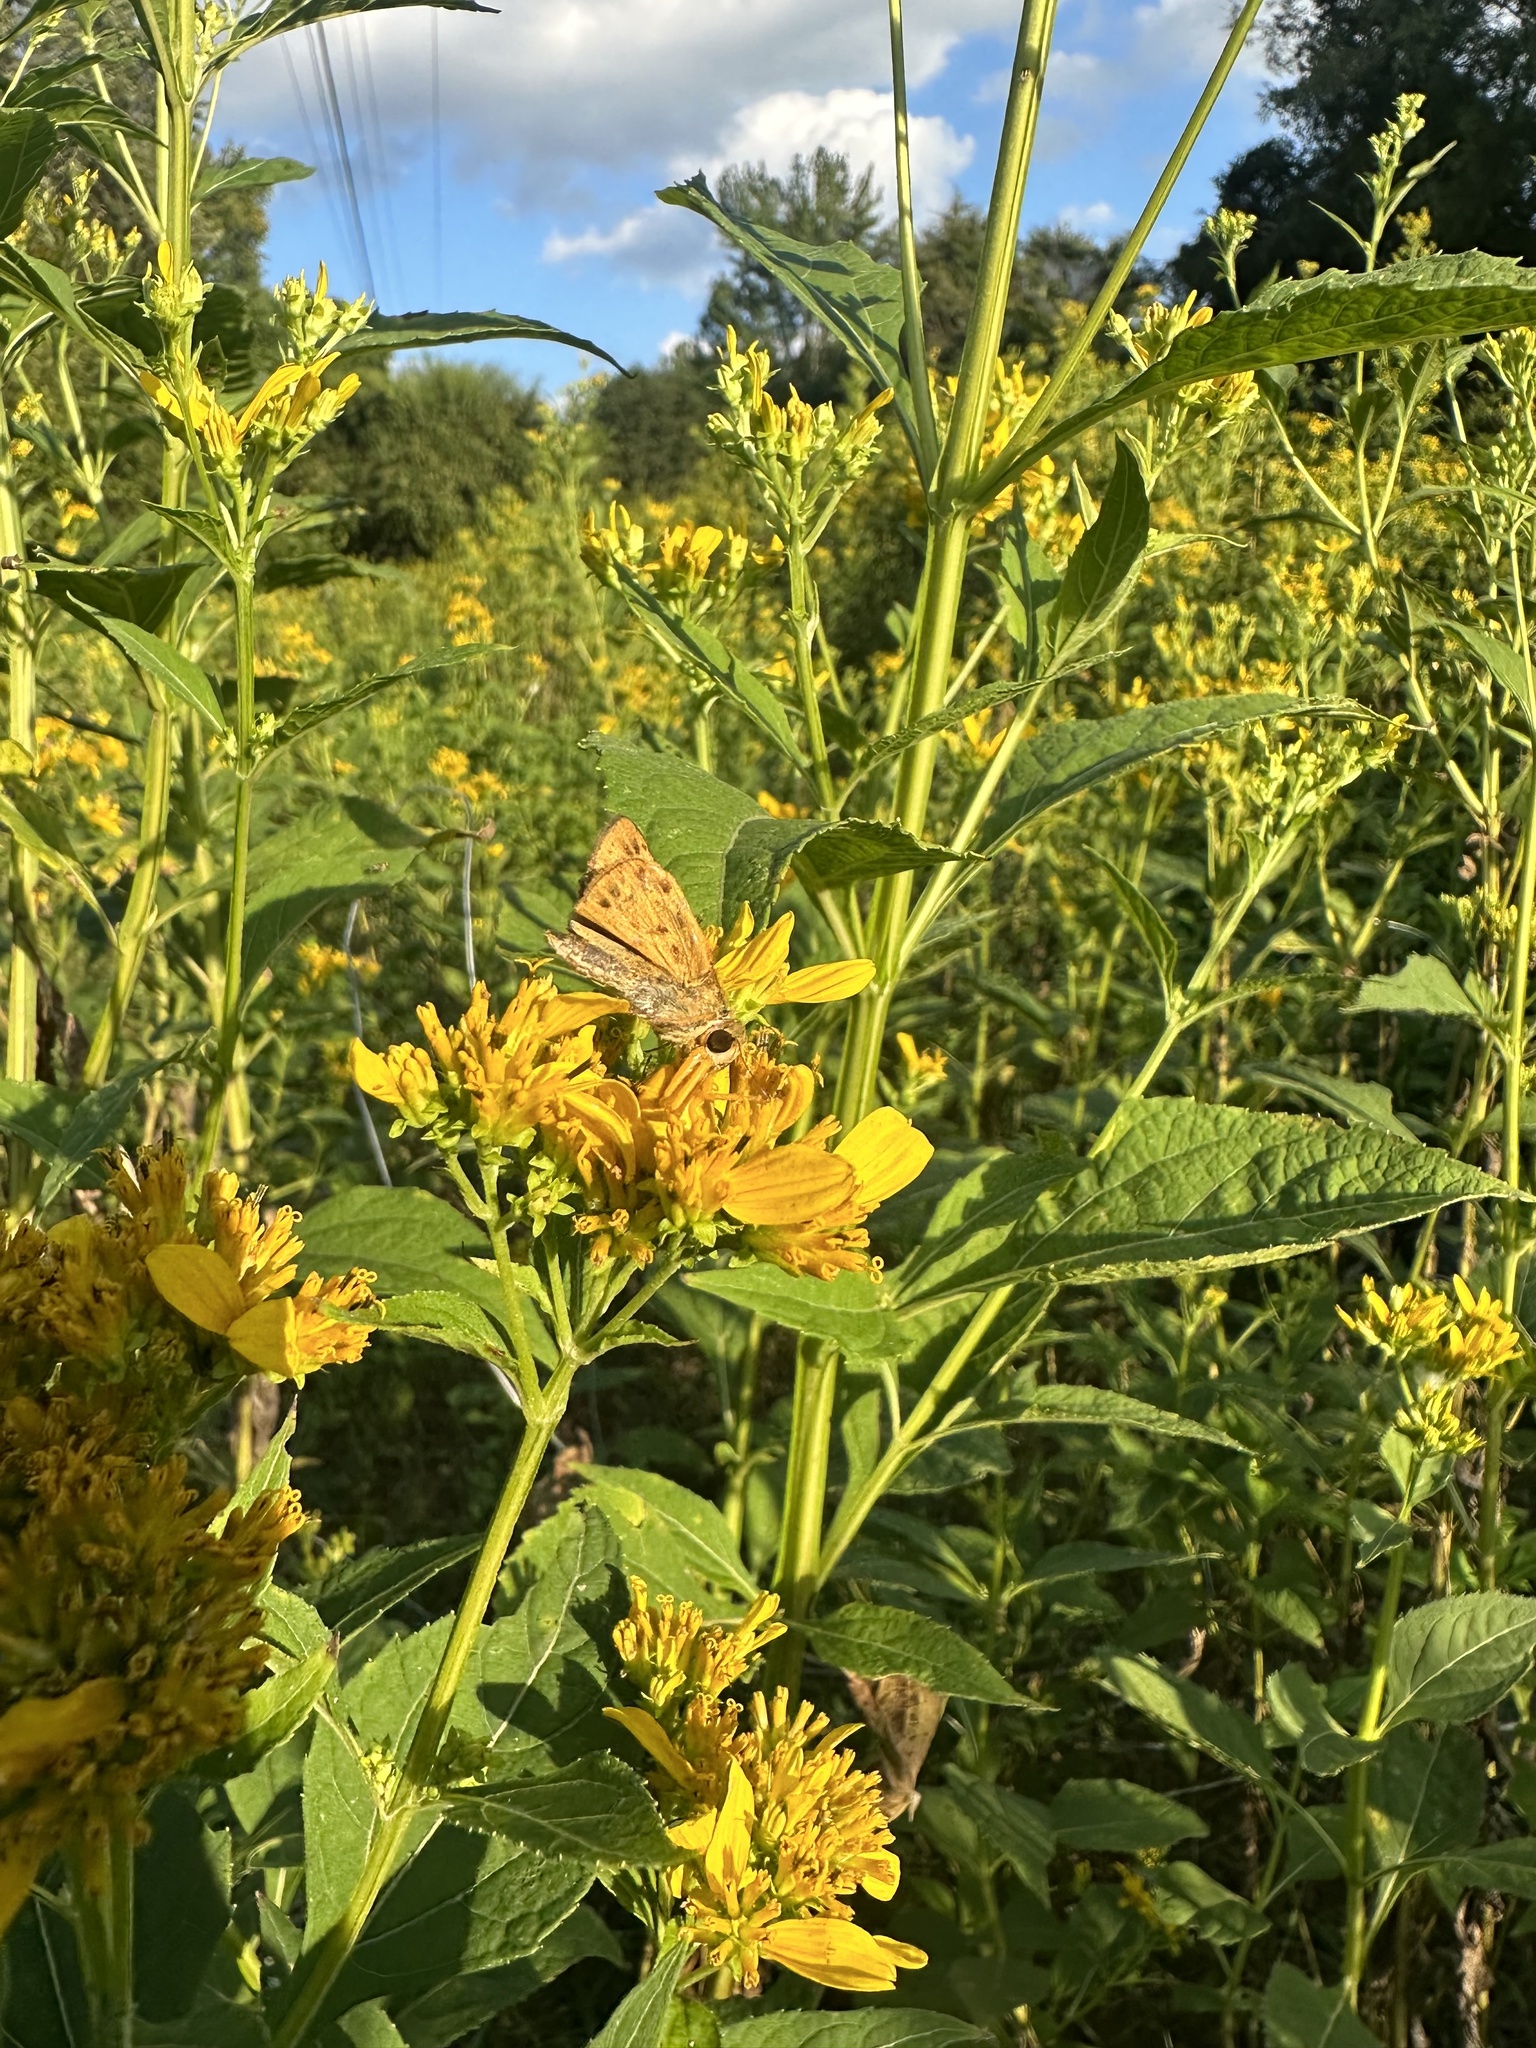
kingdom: Animalia
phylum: Arthropoda
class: Insecta
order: Lepidoptera
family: Hesperiidae
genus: Hylephila
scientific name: Hylephila phyleus
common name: Fiery skipper
